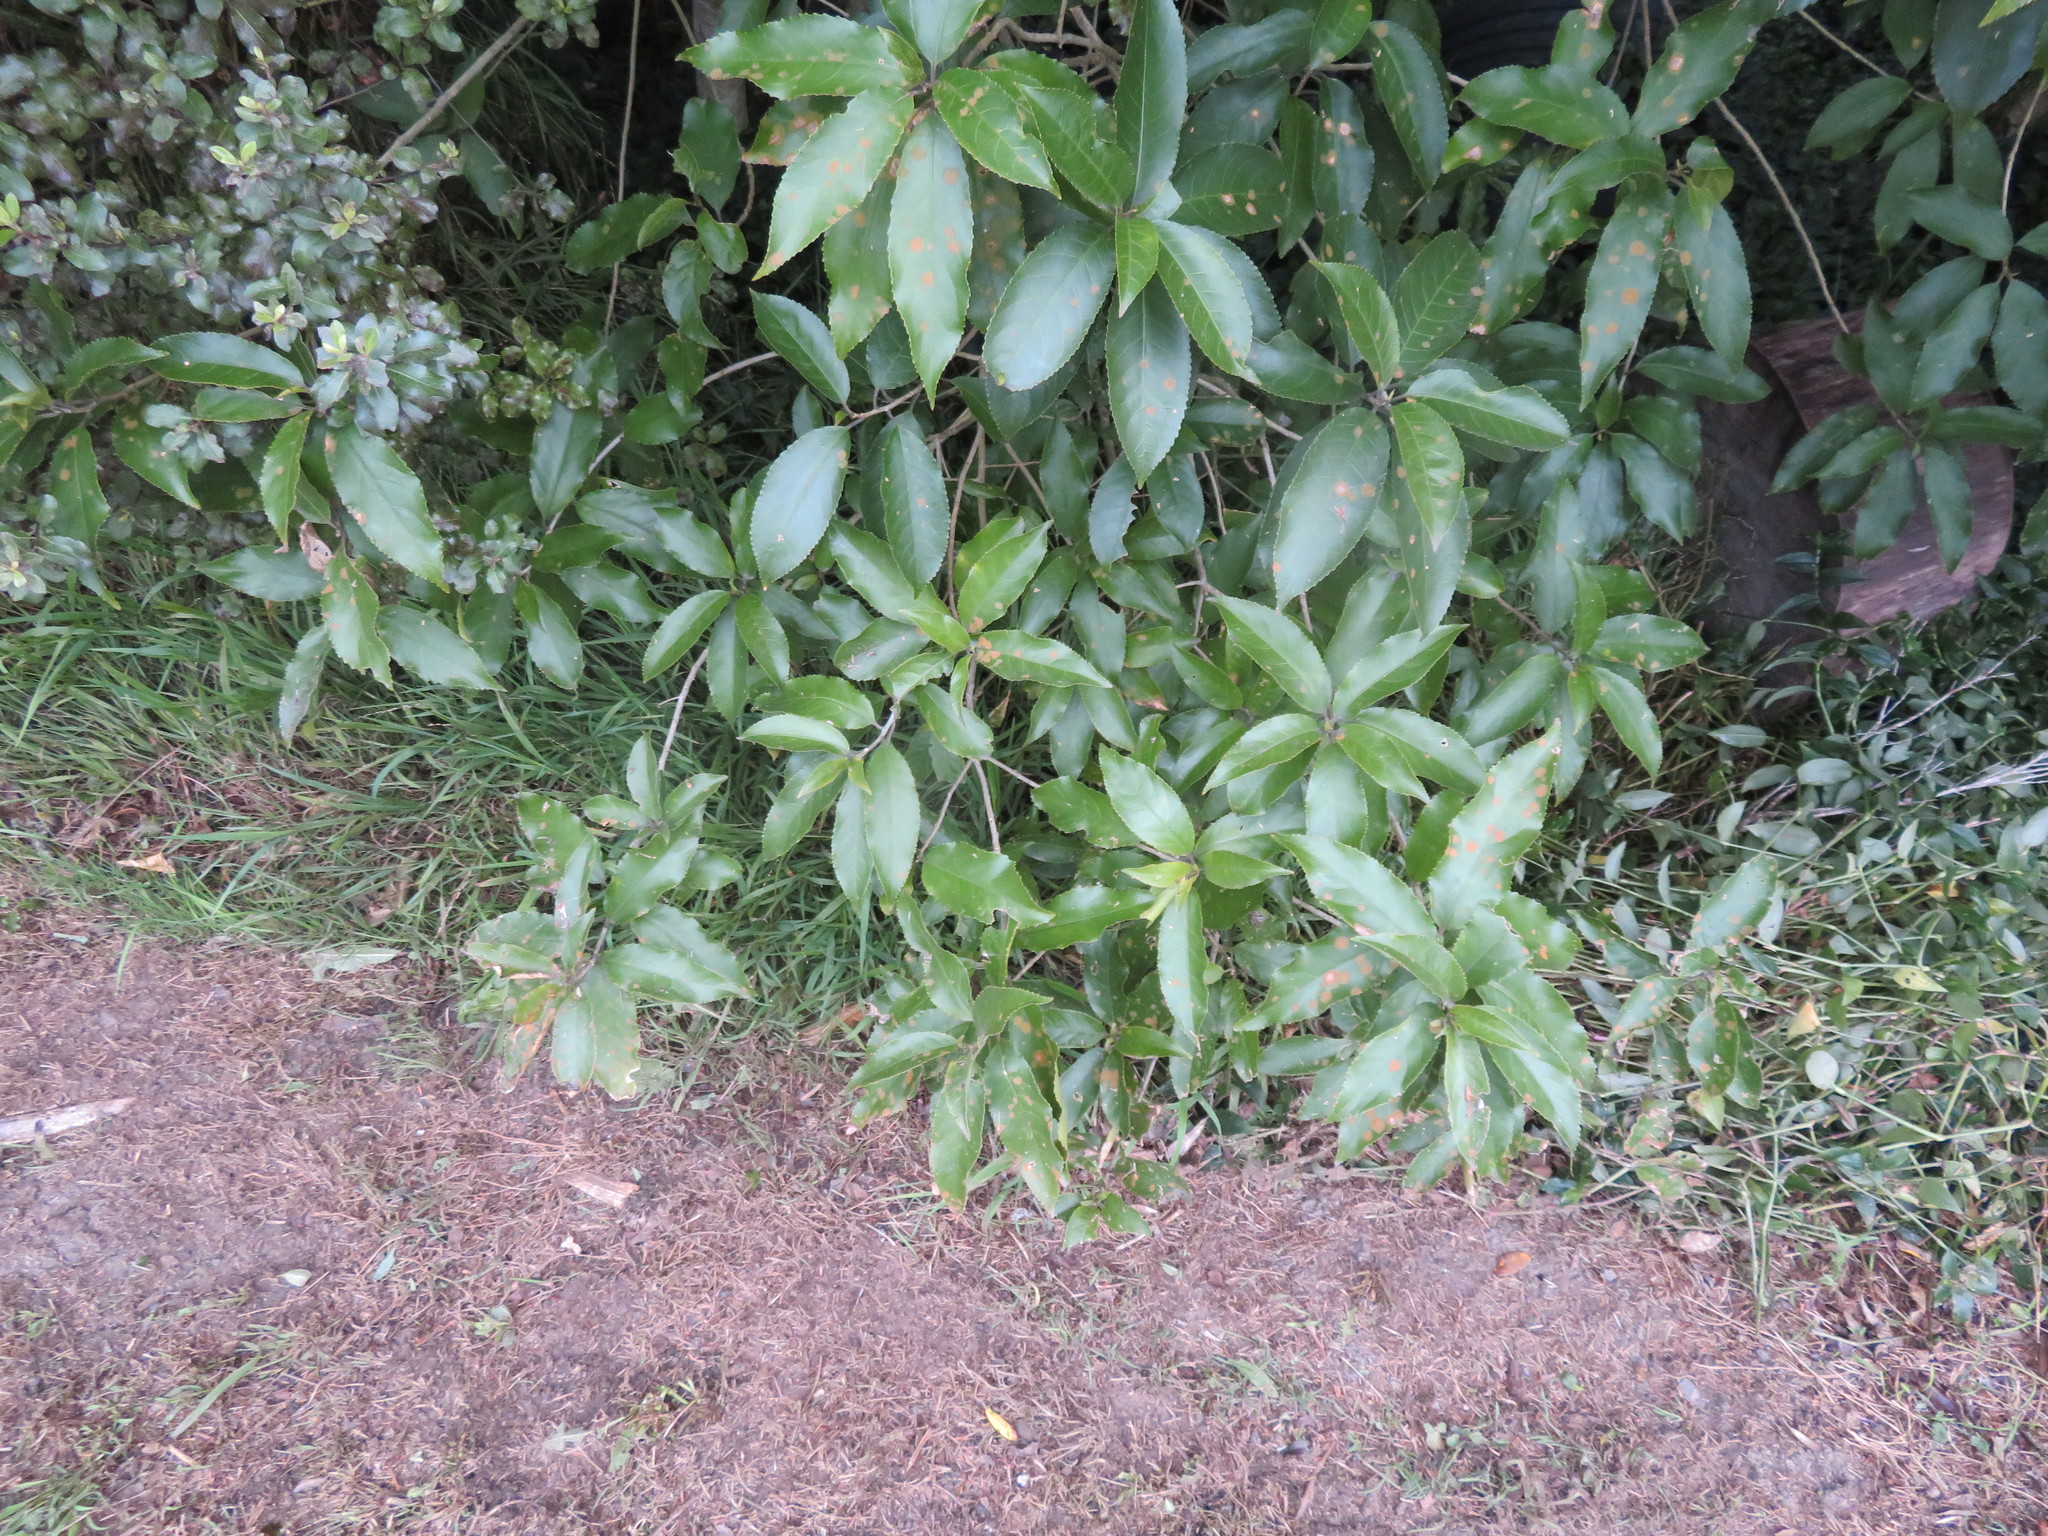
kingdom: Plantae
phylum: Tracheophyta
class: Magnoliopsida
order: Malpighiales
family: Violaceae
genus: Melicytus
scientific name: Melicytus ramiflorus
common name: Mahoe
